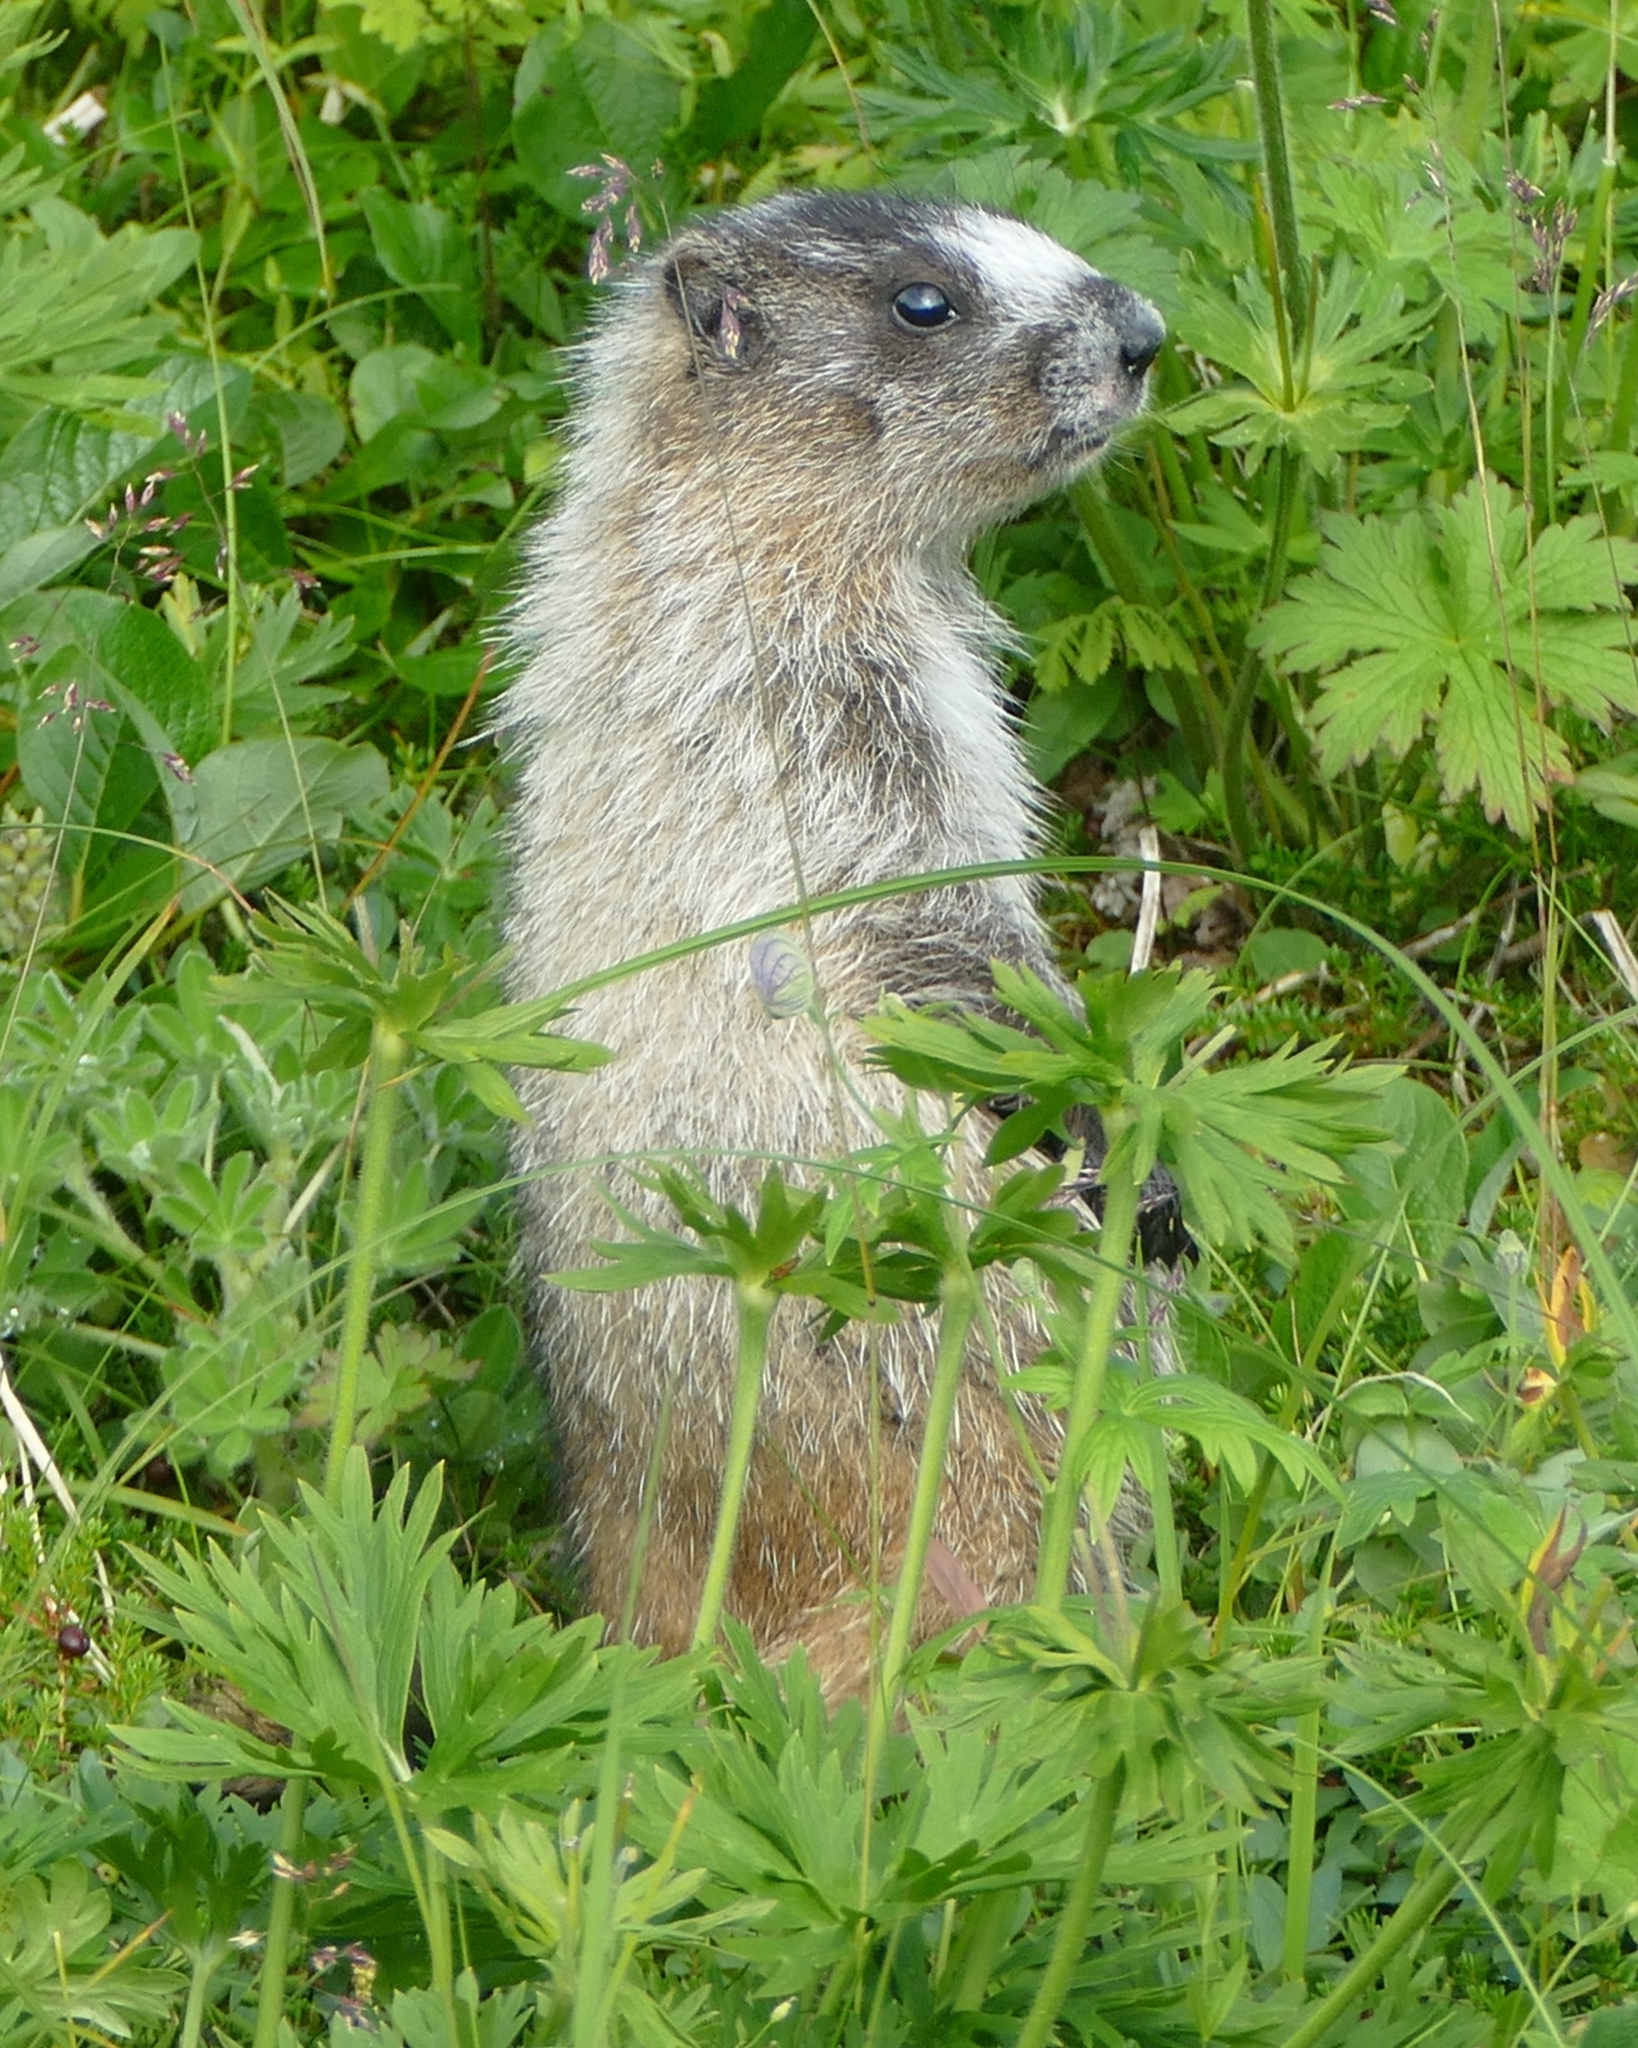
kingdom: Animalia
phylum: Chordata
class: Mammalia
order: Rodentia
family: Sciuridae
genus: Marmota
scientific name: Marmota caligata
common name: Hoary marmot
